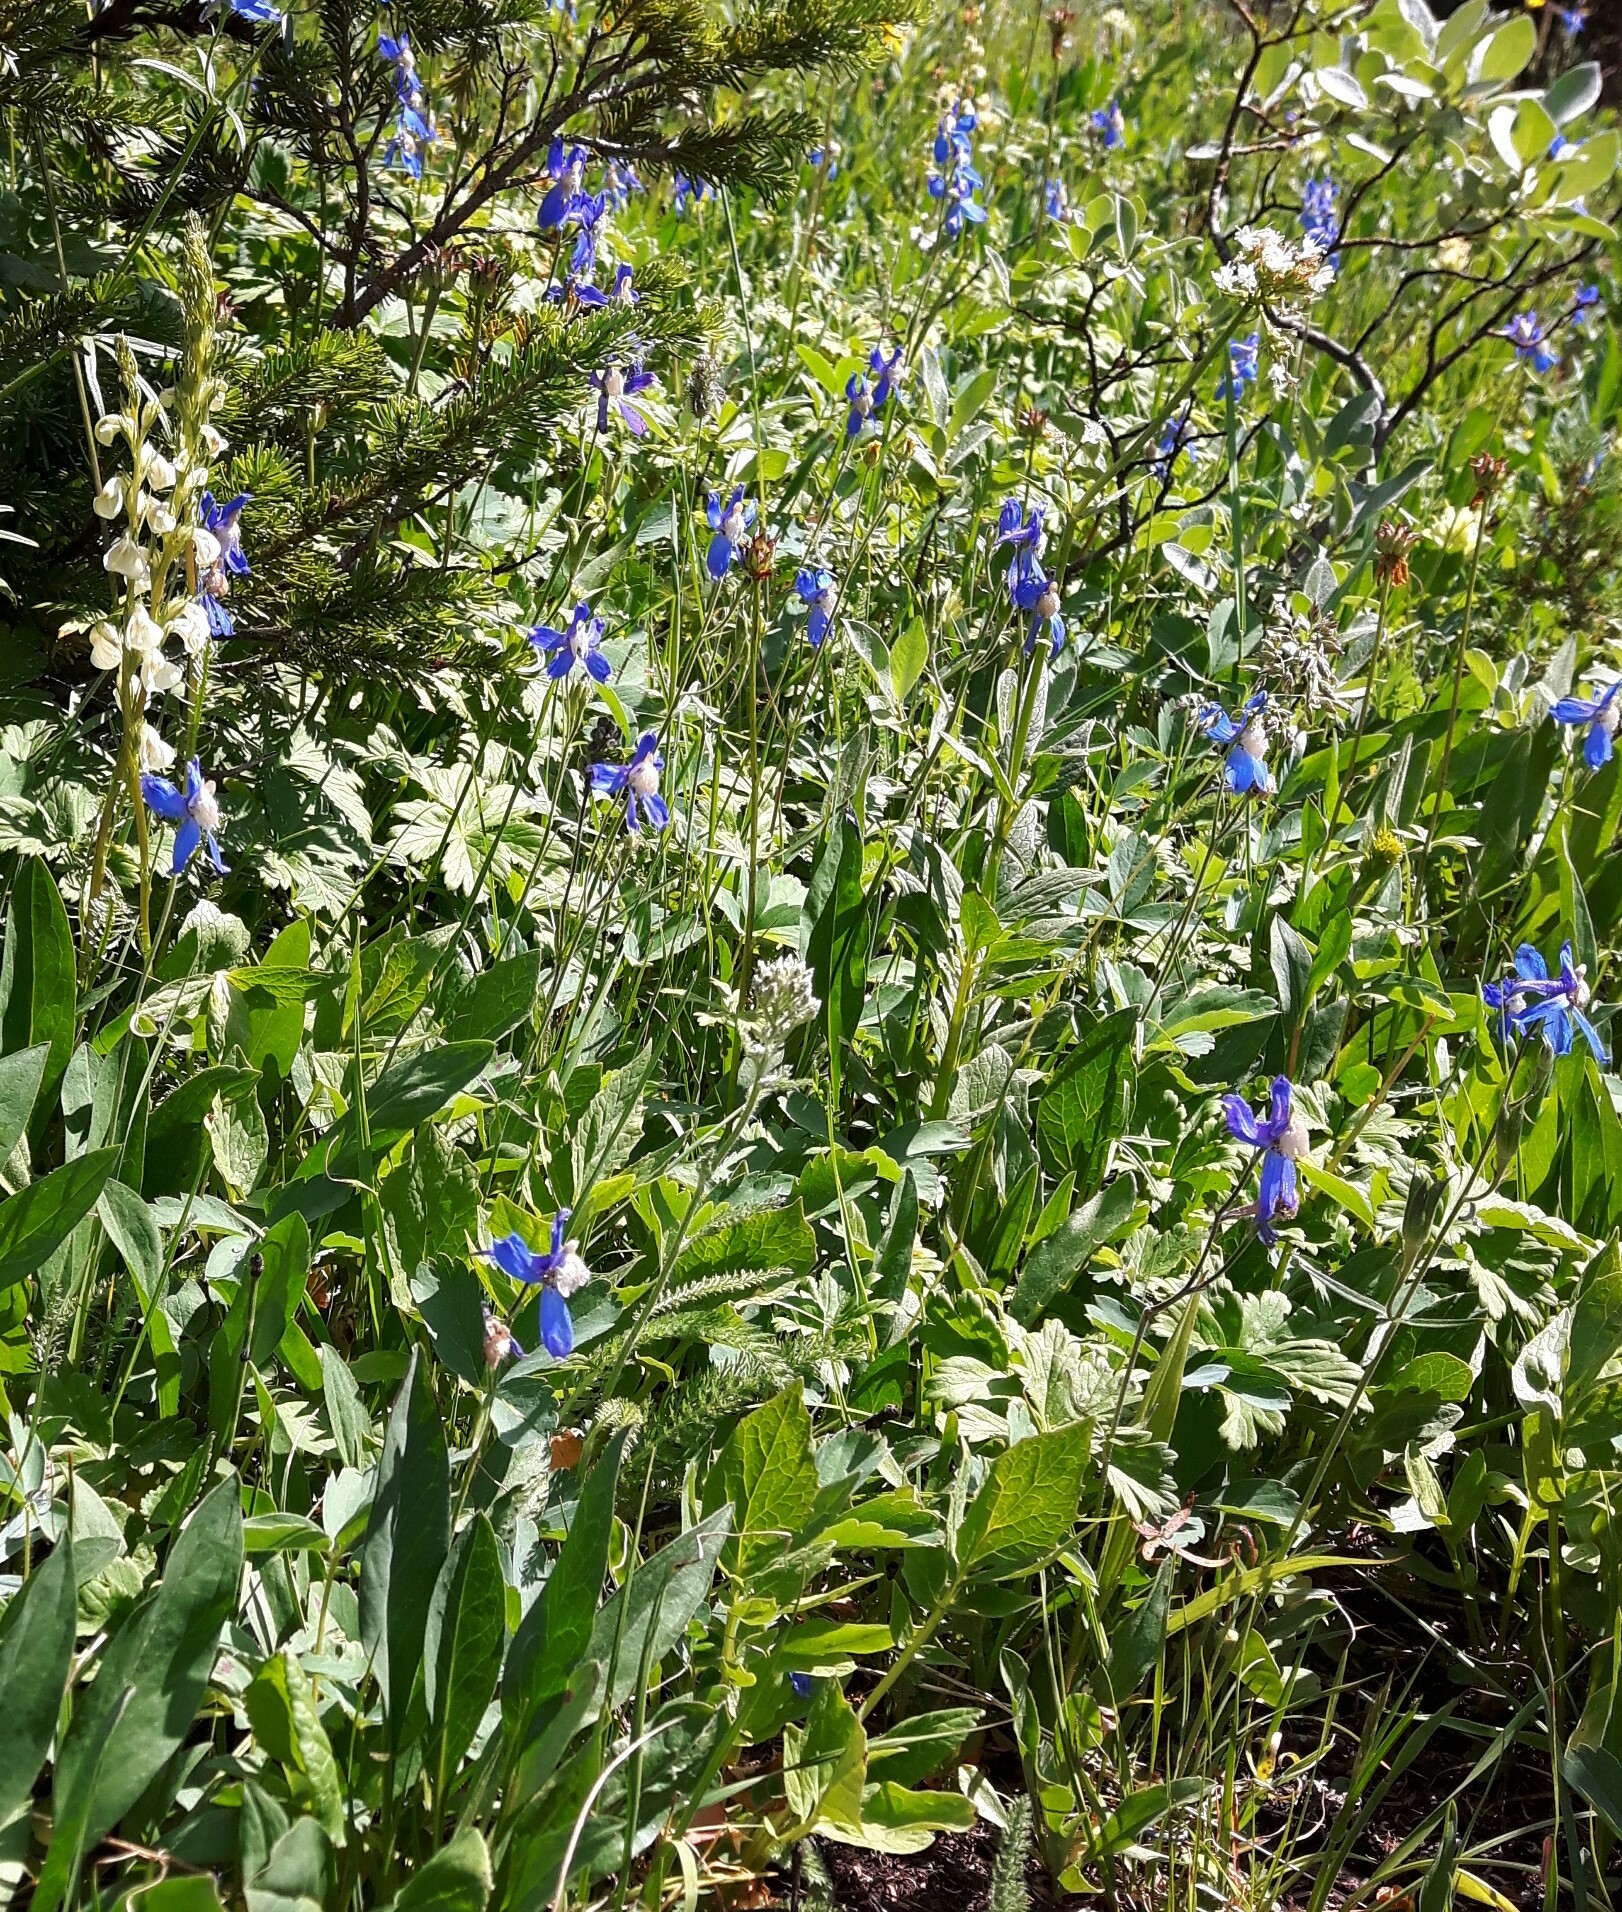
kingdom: Plantae
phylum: Tracheophyta
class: Magnoliopsida
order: Ranunculales
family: Ranunculaceae
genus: Delphinium
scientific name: Delphinium sutherlandii
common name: Sutherland's larkspur
